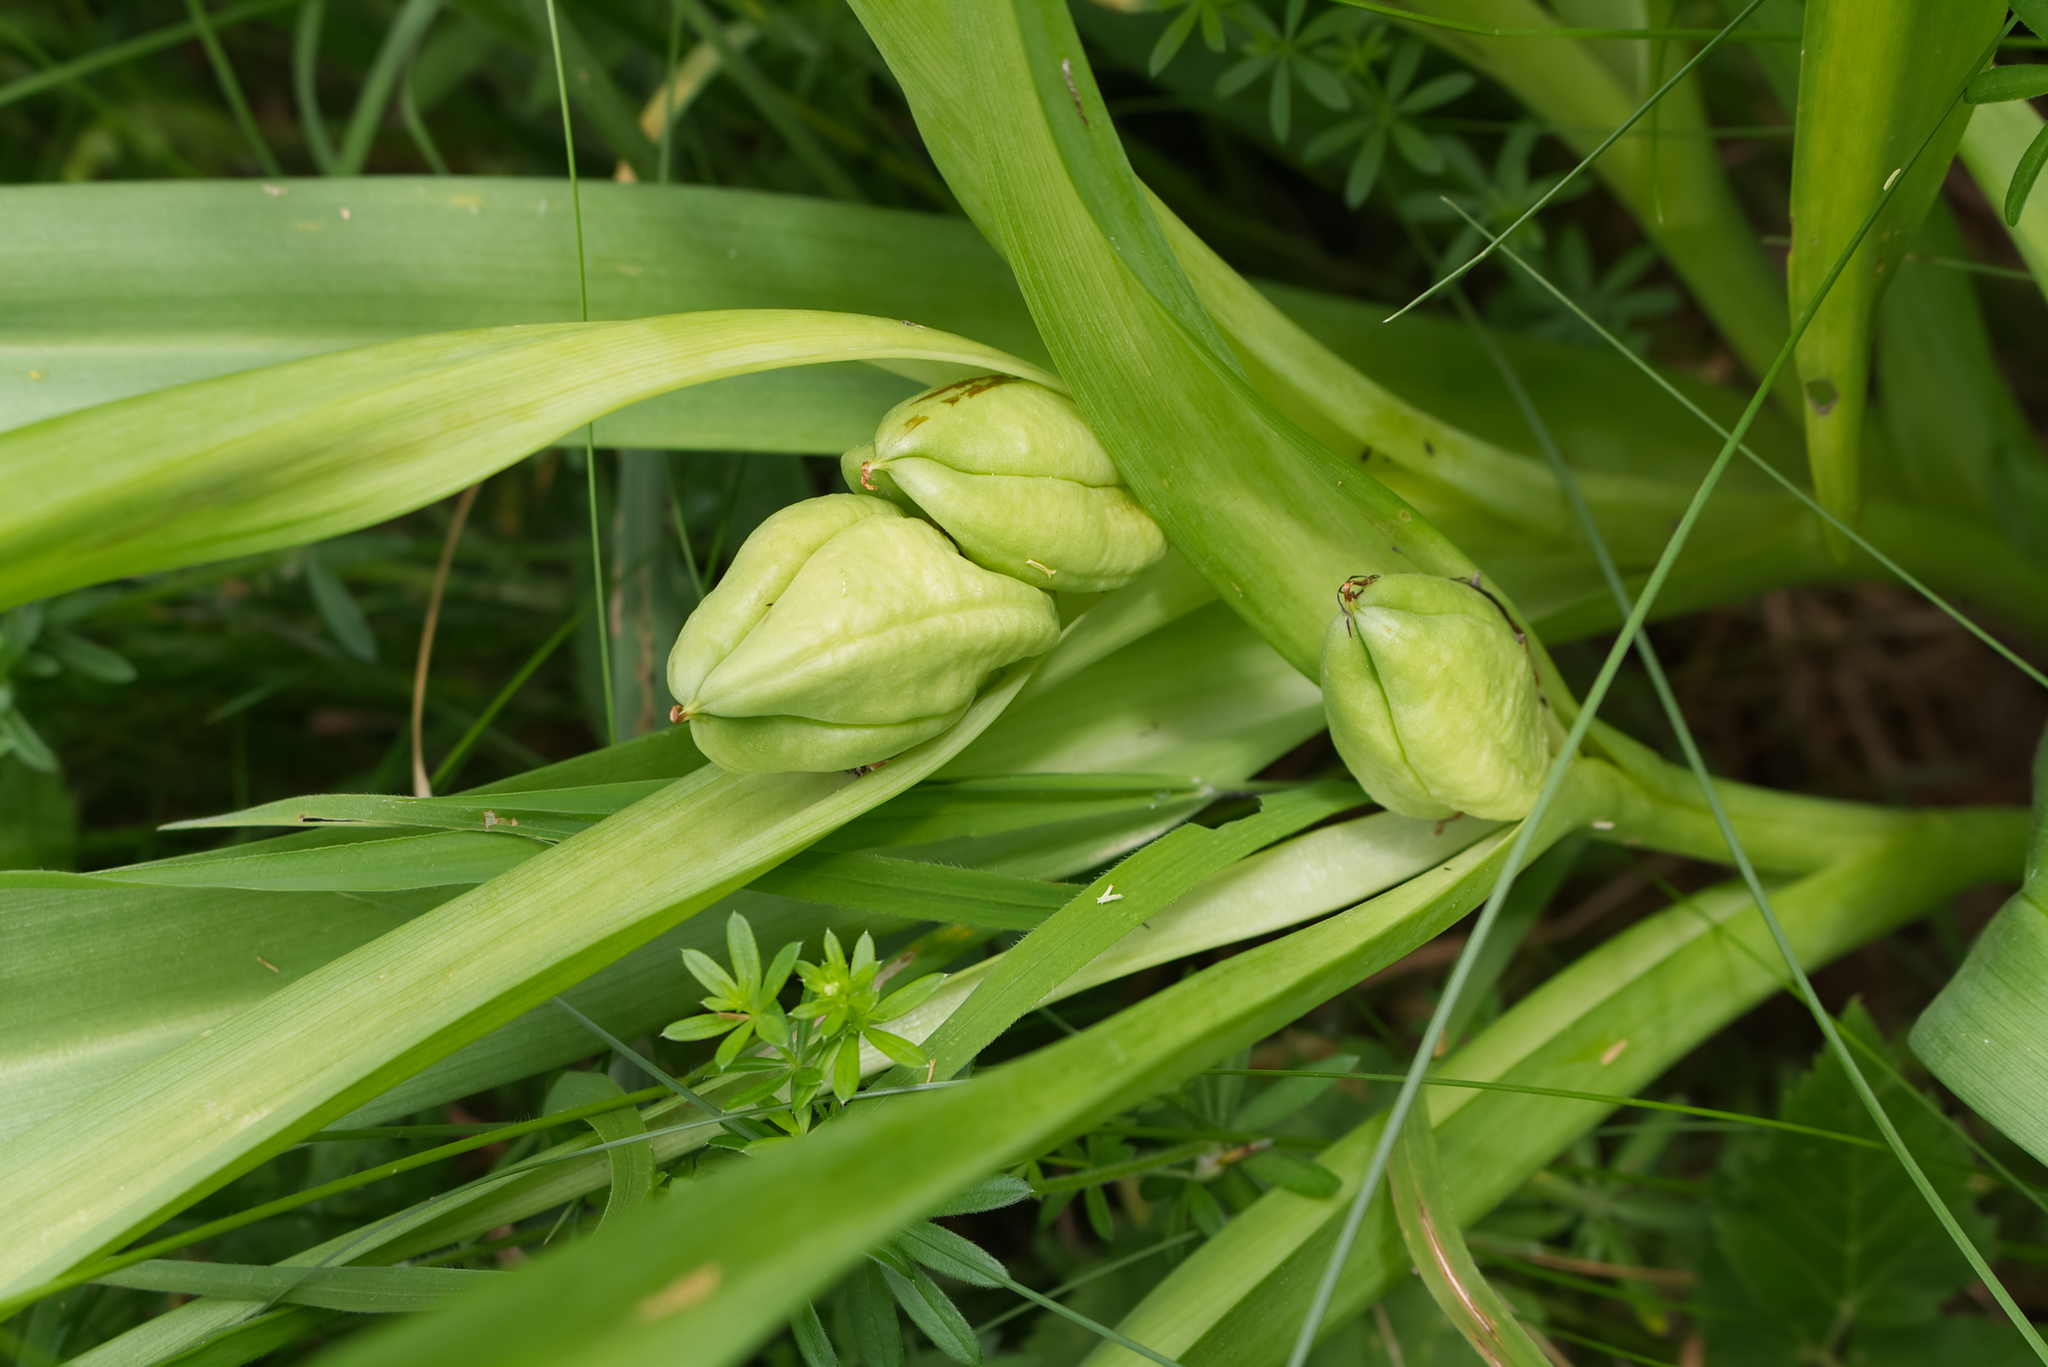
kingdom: Plantae
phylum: Tracheophyta
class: Liliopsida
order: Liliales
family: Colchicaceae
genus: Colchicum
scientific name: Colchicum autumnale
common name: Autumn crocus
